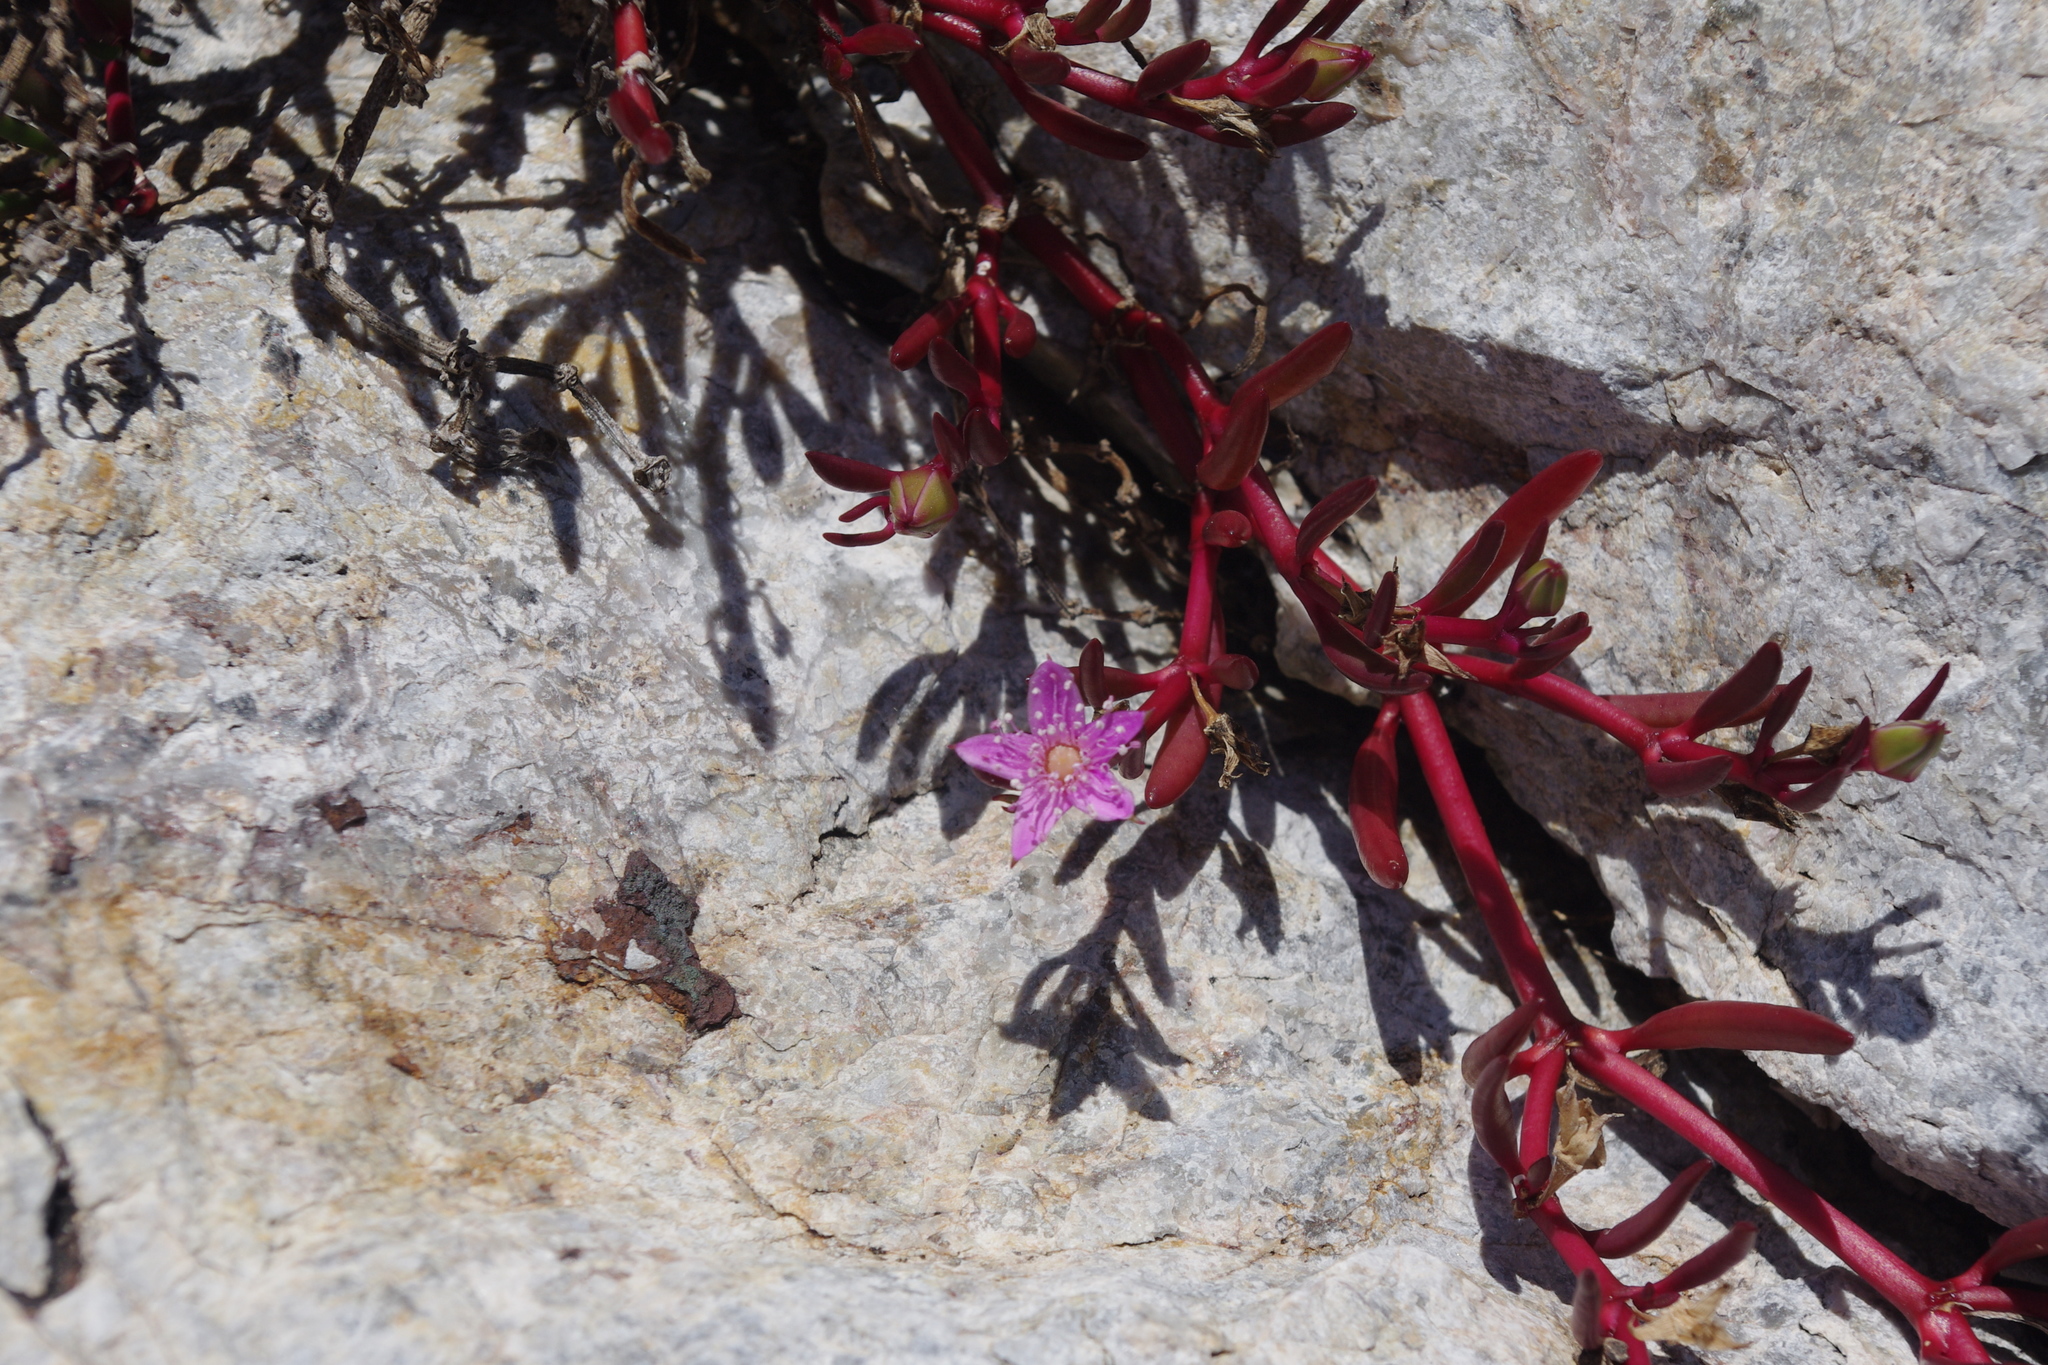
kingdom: Plantae
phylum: Tracheophyta
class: Magnoliopsida
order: Caryophyllales
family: Aizoaceae
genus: Sesuvium
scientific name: Sesuvium portulacastrum
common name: Sea-purslane
